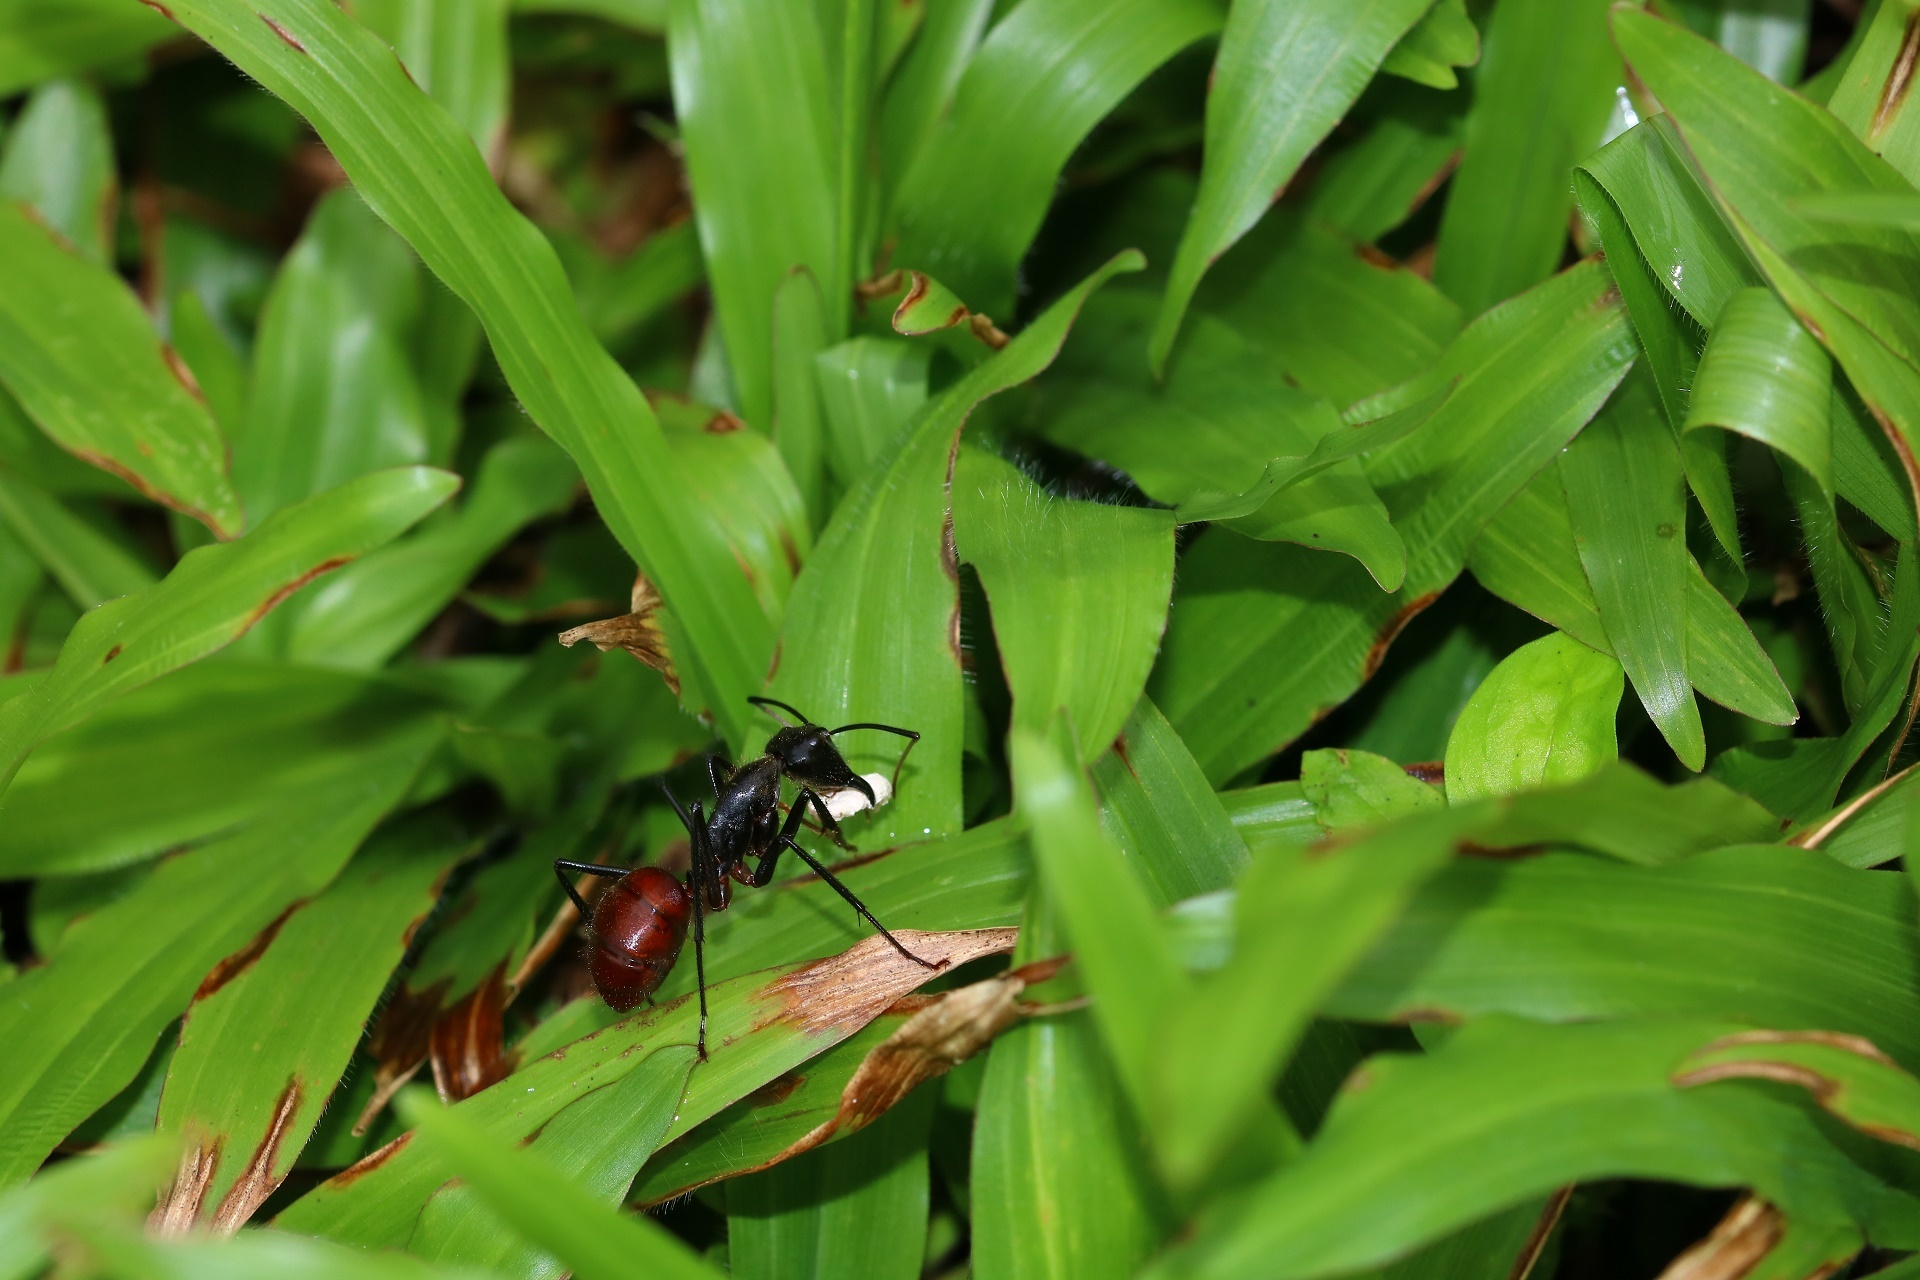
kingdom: Animalia
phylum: Arthropoda
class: Insecta
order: Hymenoptera
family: Formicidae
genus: Dinomyrmex
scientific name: Dinomyrmex
